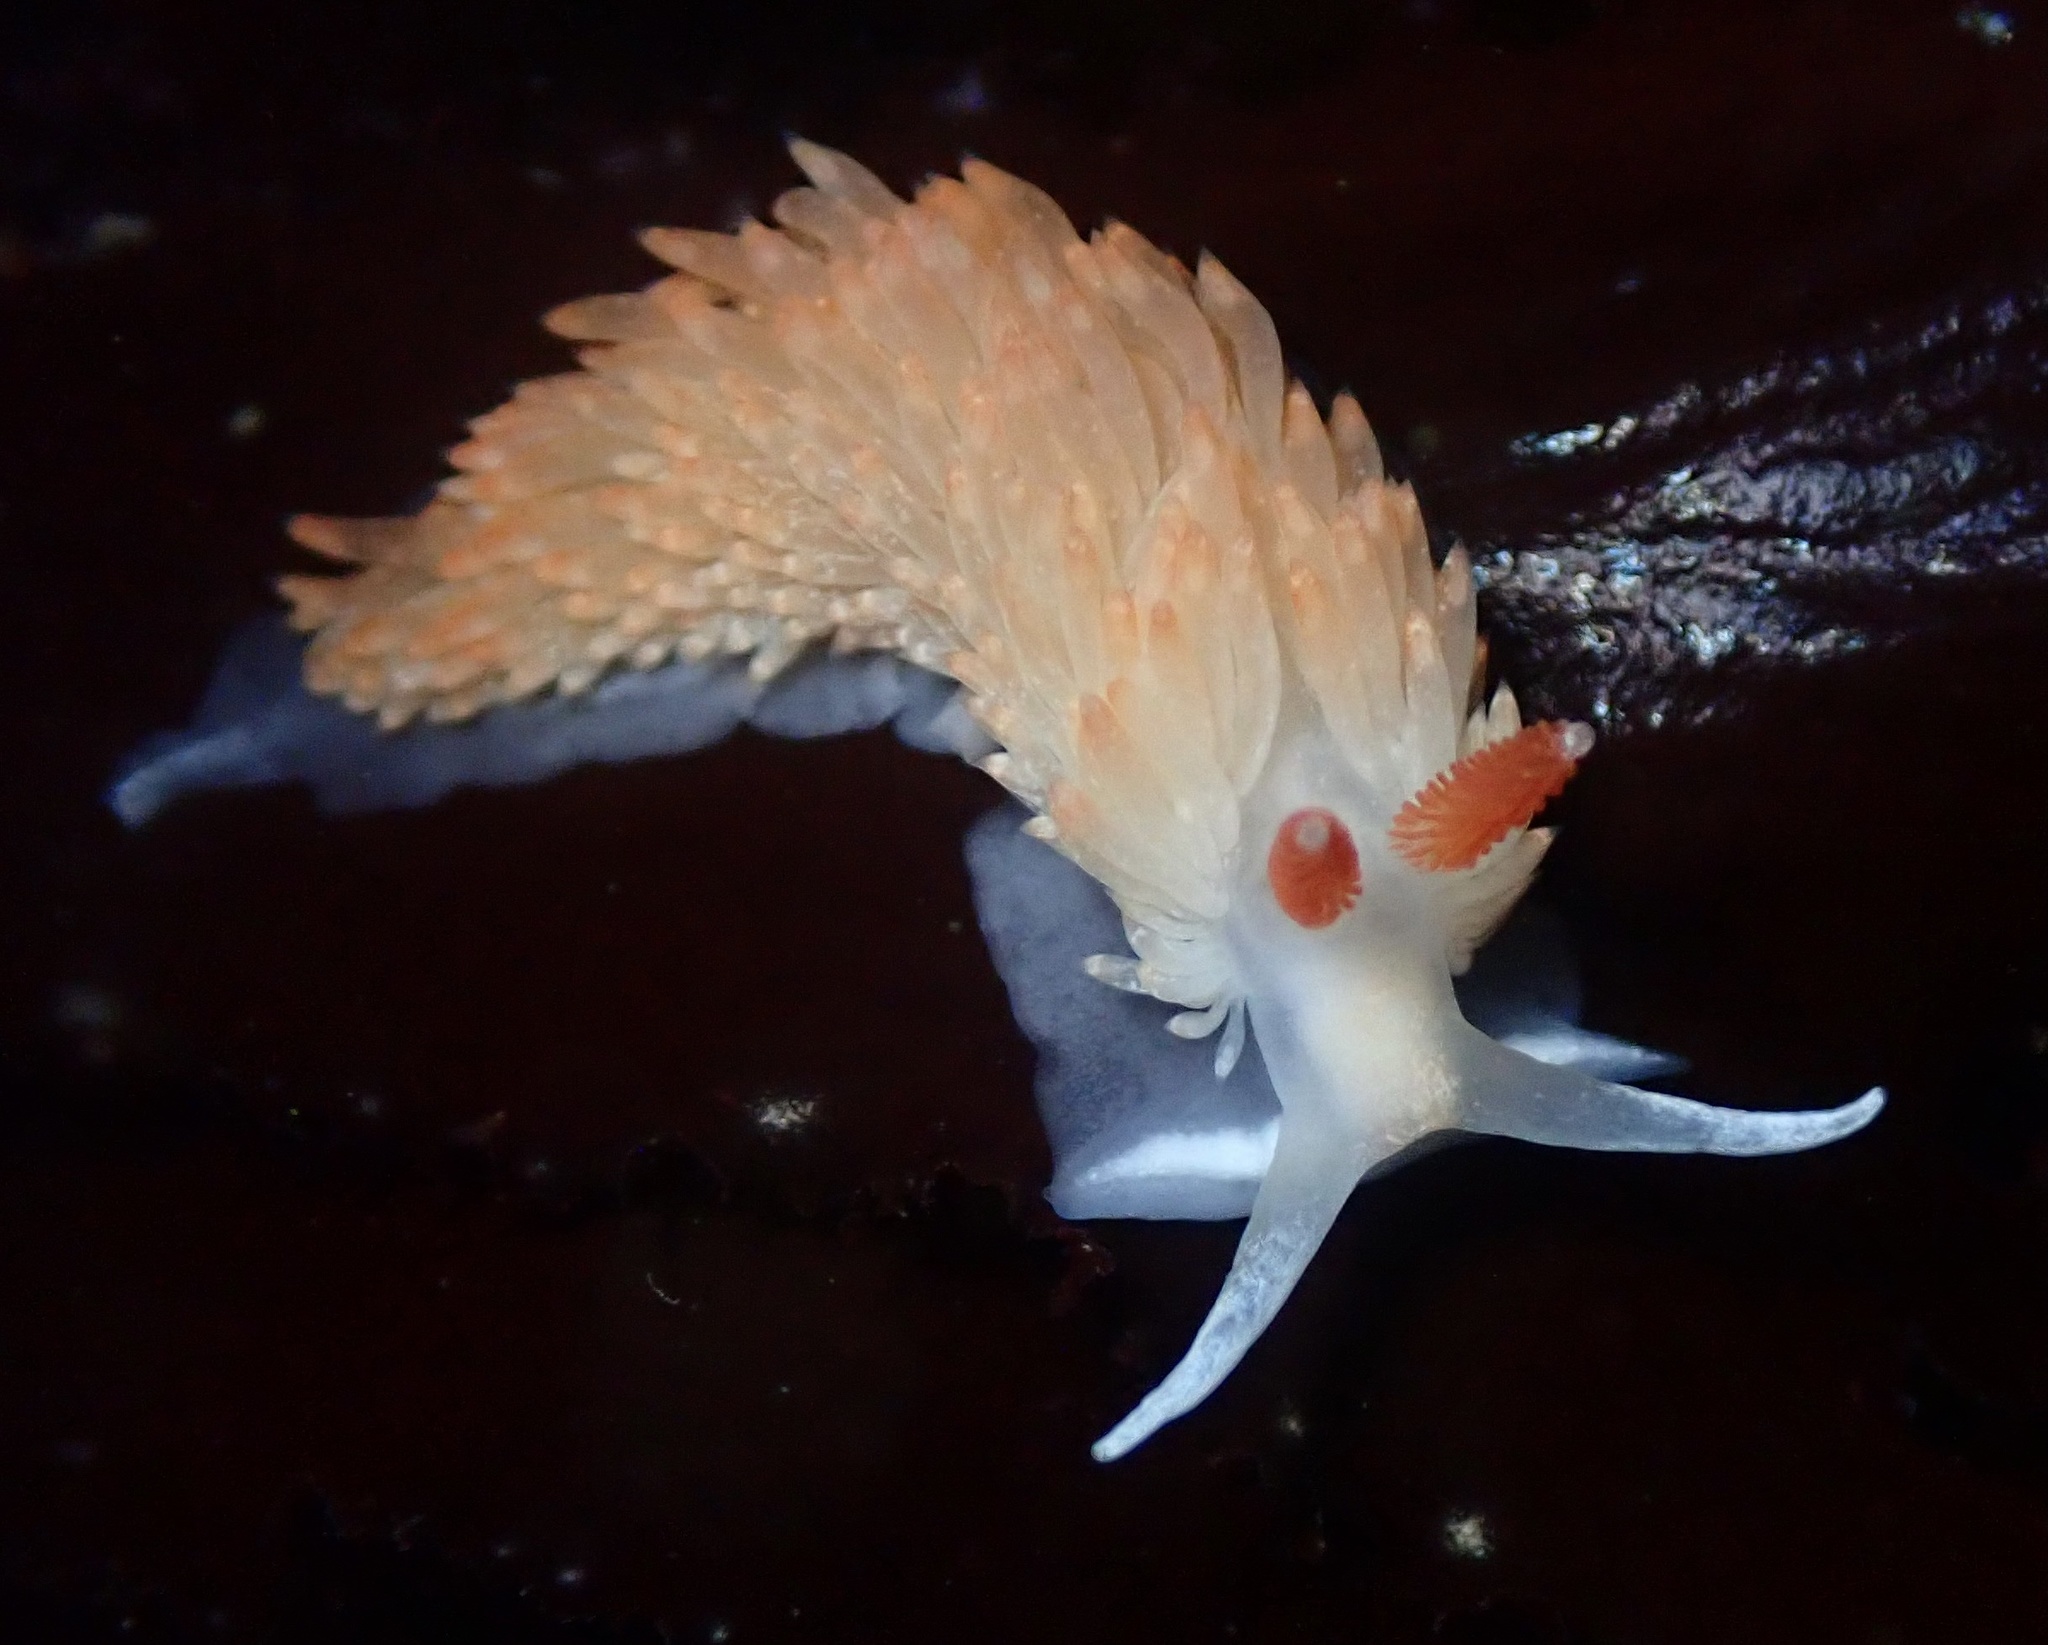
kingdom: Animalia
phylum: Mollusca
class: Gastropoda
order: Nudibranchia
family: Aeolidiidae
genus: Anteaeolidiella
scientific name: Anteaeolidiella oliviae
